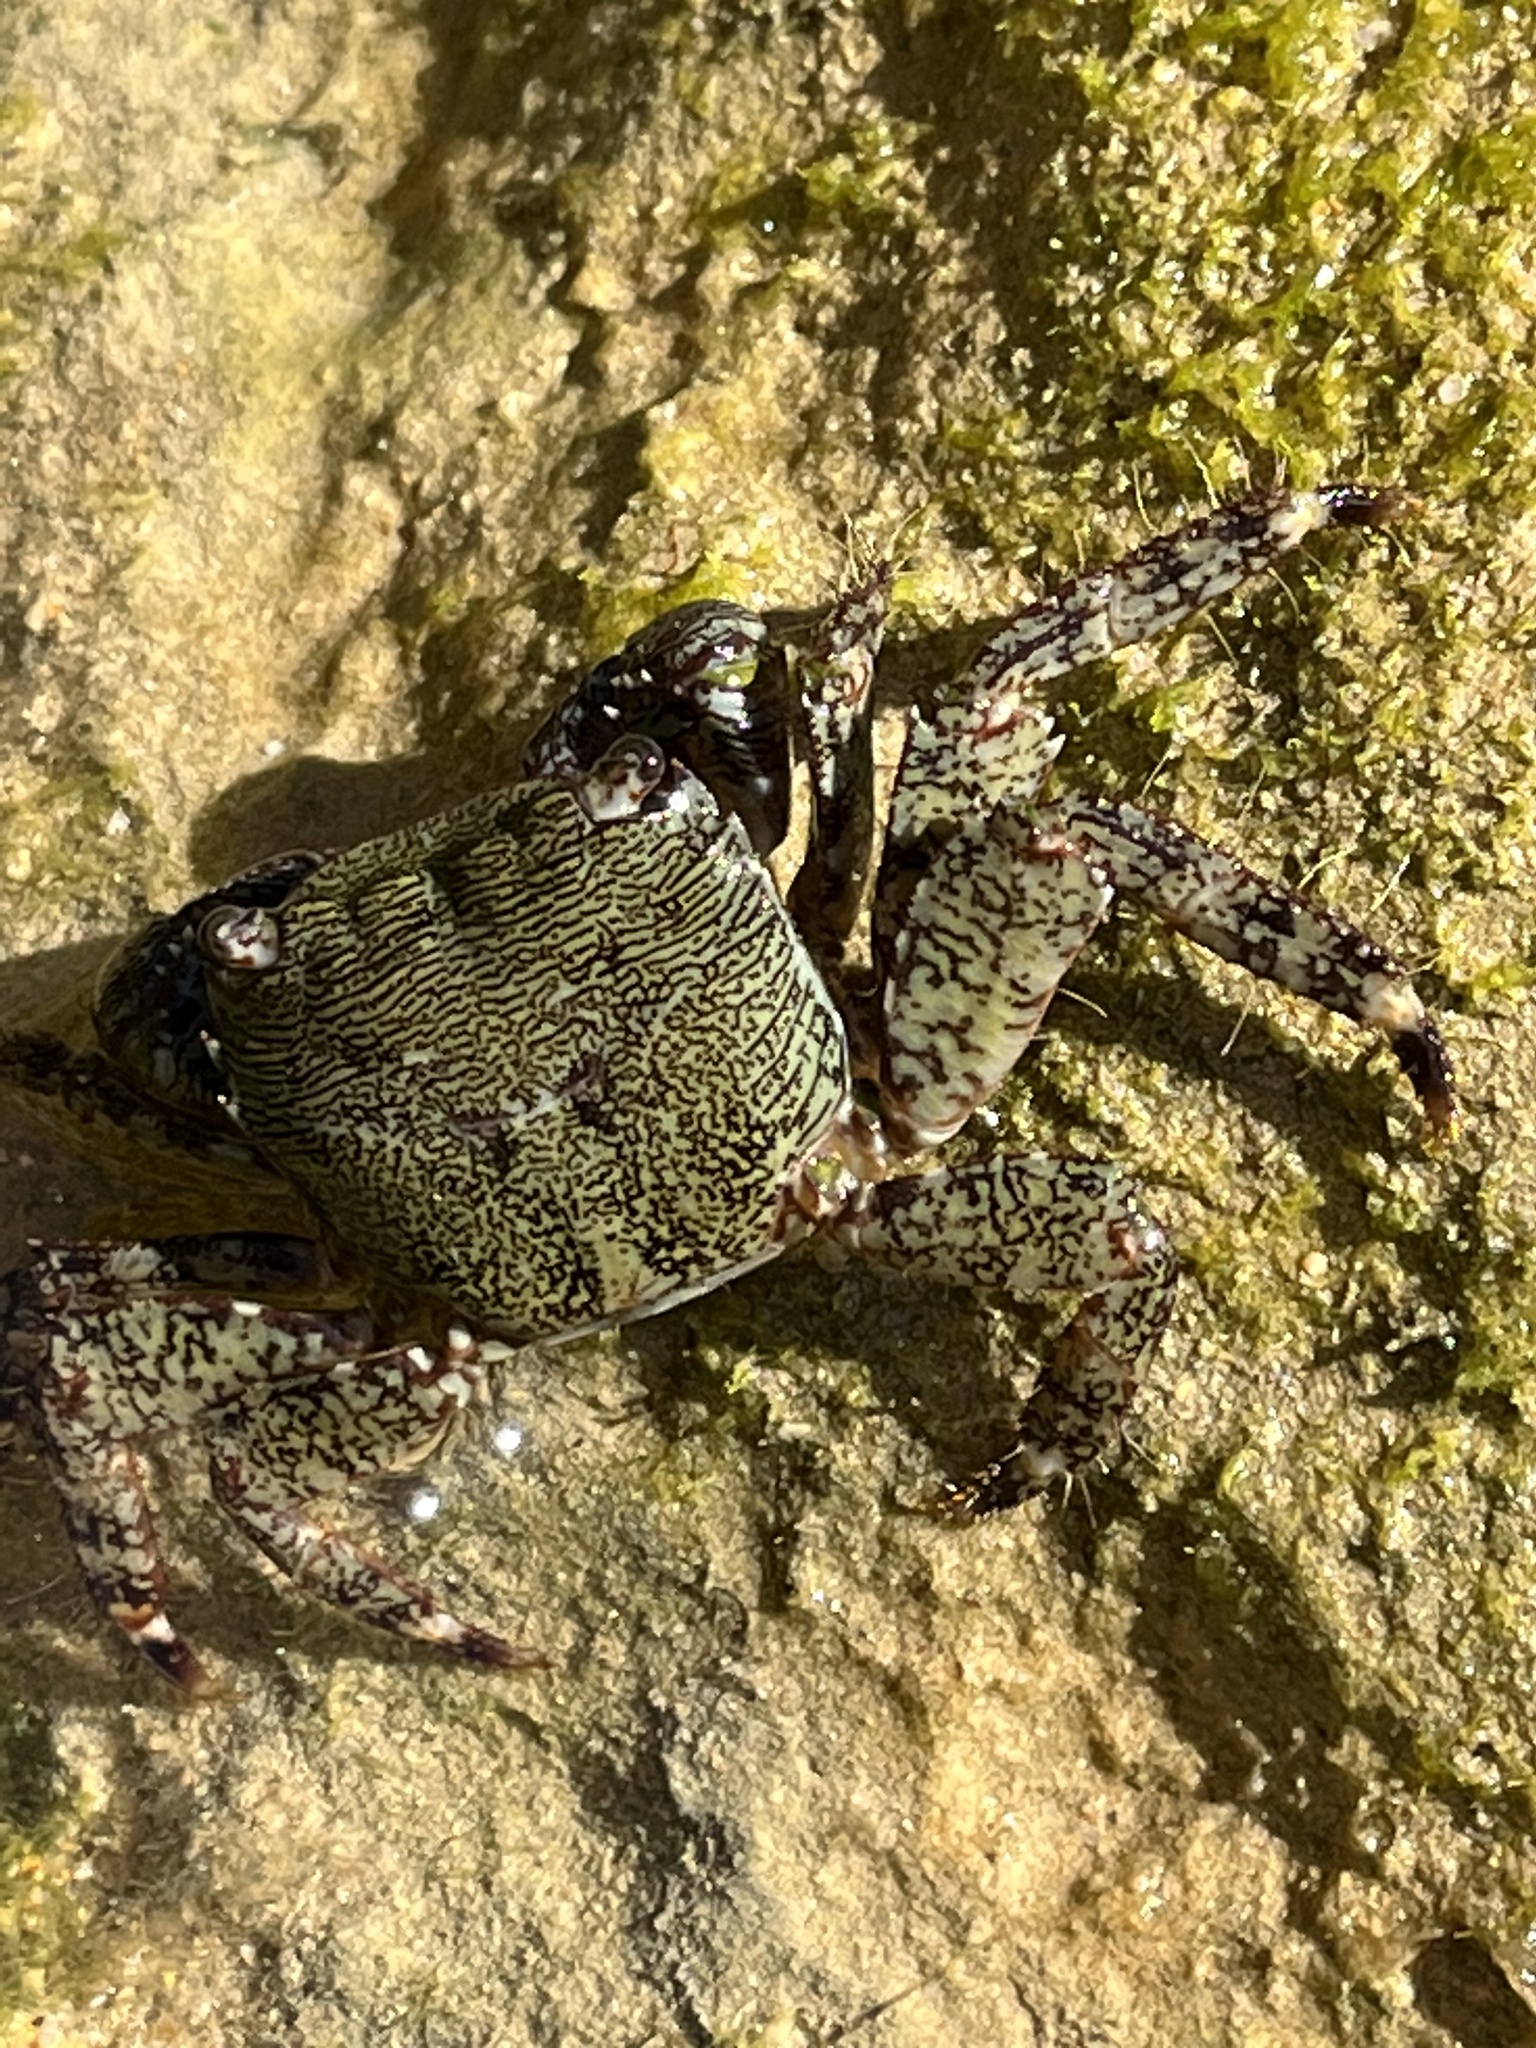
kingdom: Animalia
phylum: Arthropoda
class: Malacostraca
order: Decapoda
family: Grapsidae
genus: Pachygrapsus
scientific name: Pachygrapsus marmoratus
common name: Marbled rock crab
